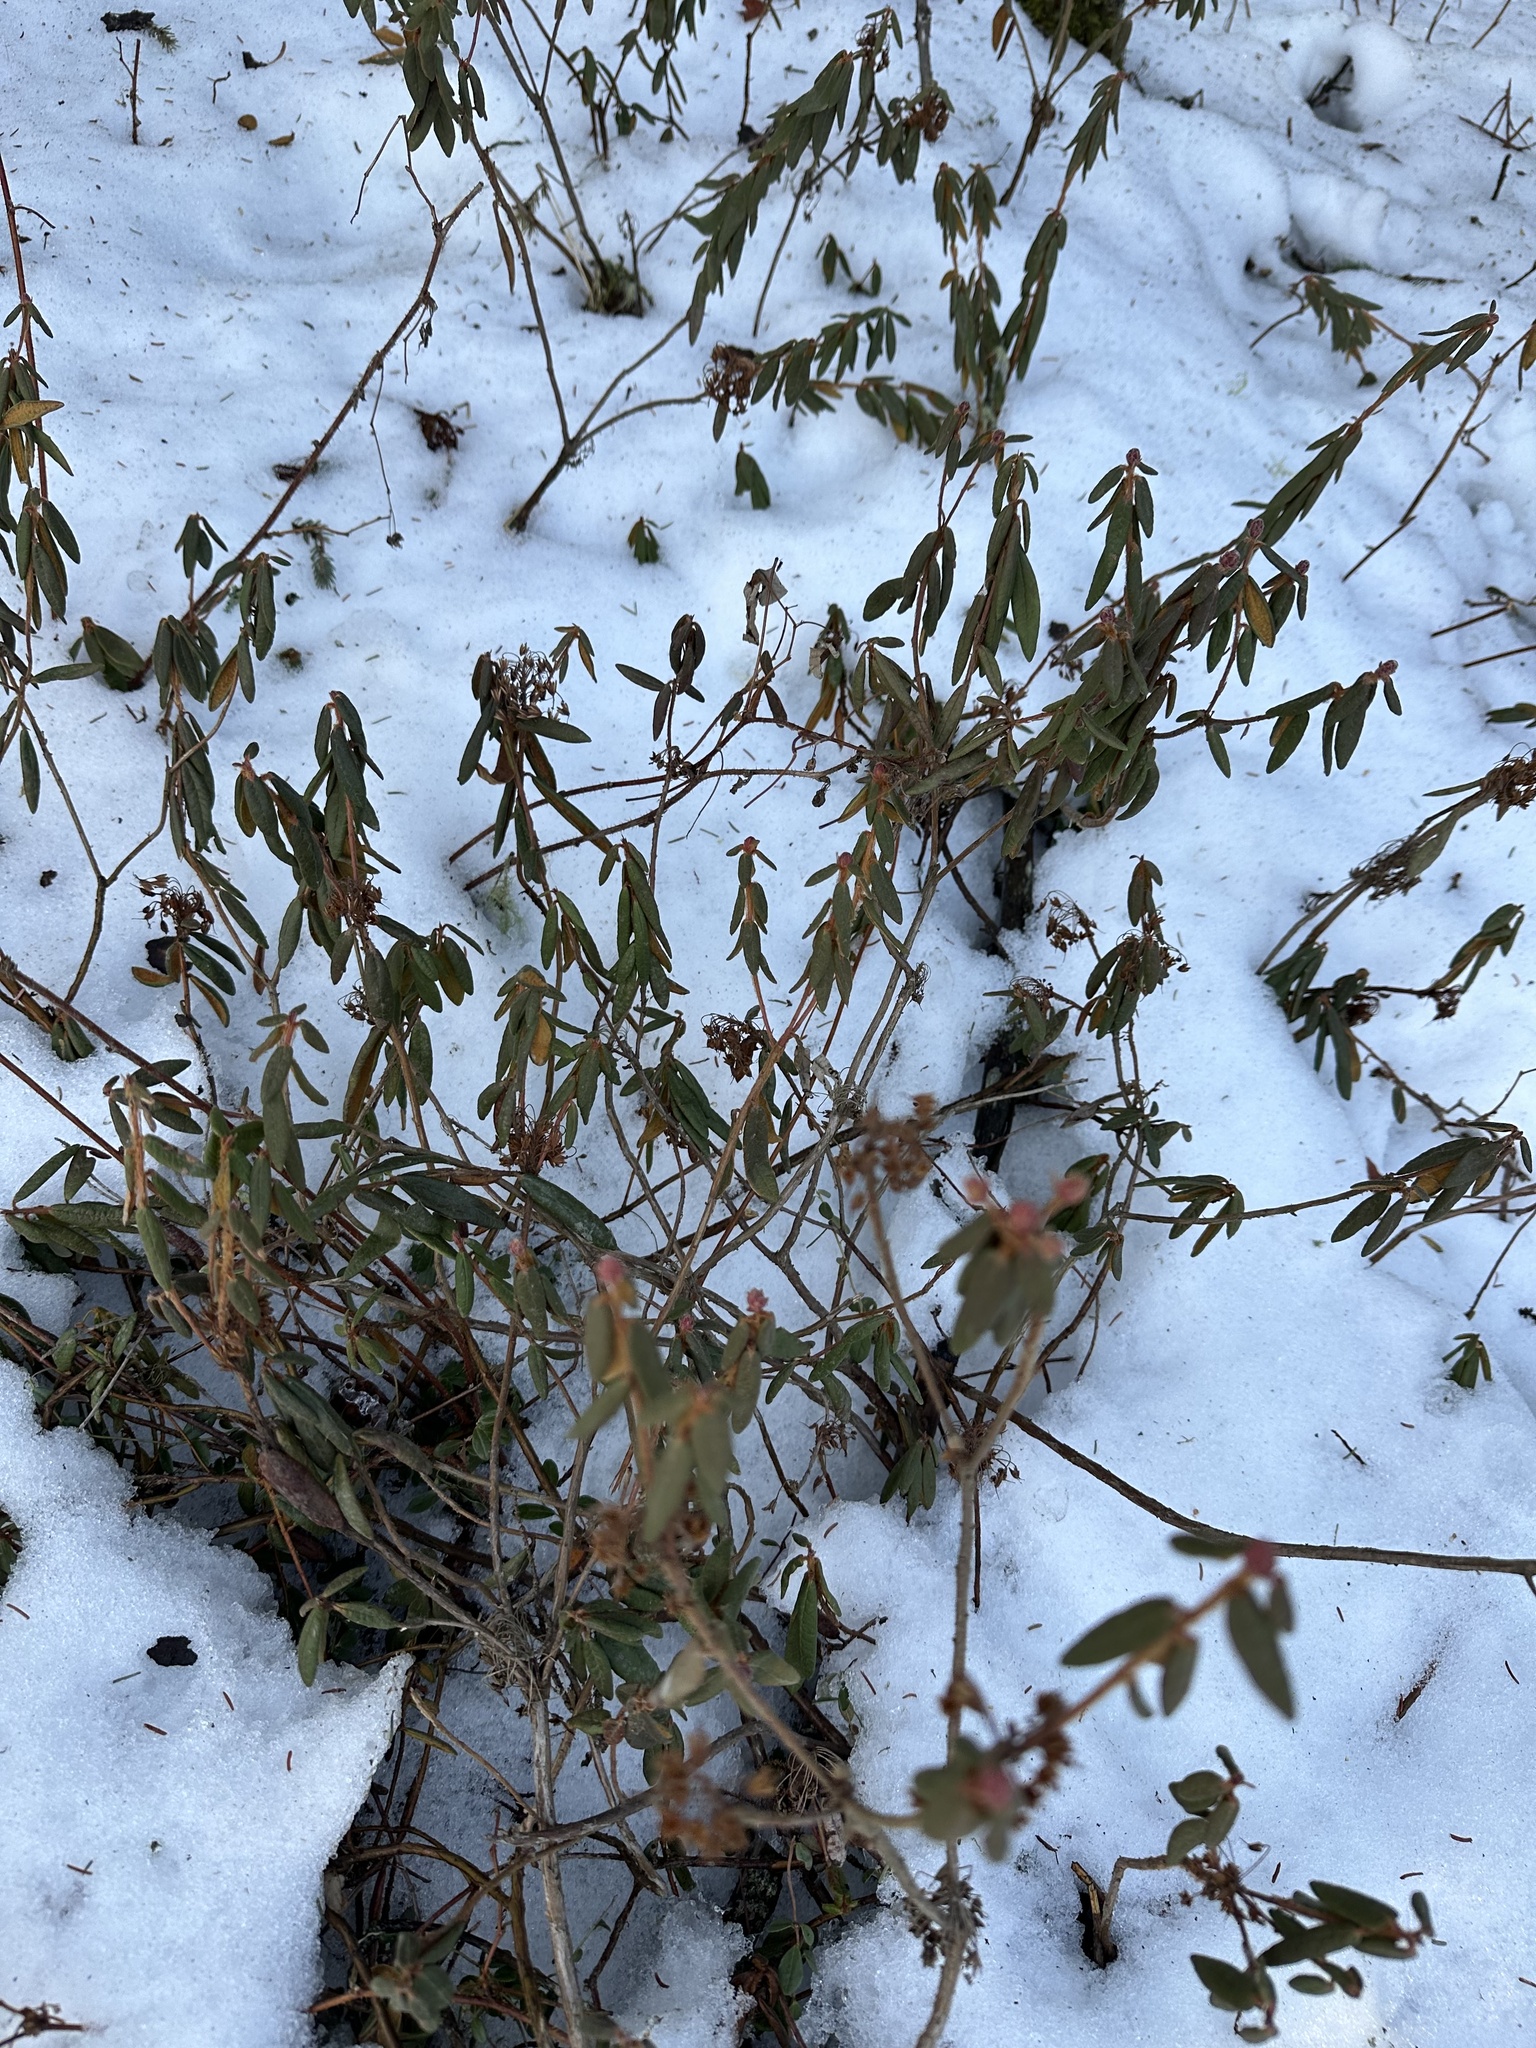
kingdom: Plantae
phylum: Tracheophyta
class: Magnoliopsida
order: Ericales
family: Ericaceae
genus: Rhododendron
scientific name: Rhododendron groenlandicum
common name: Bog labrador tea
